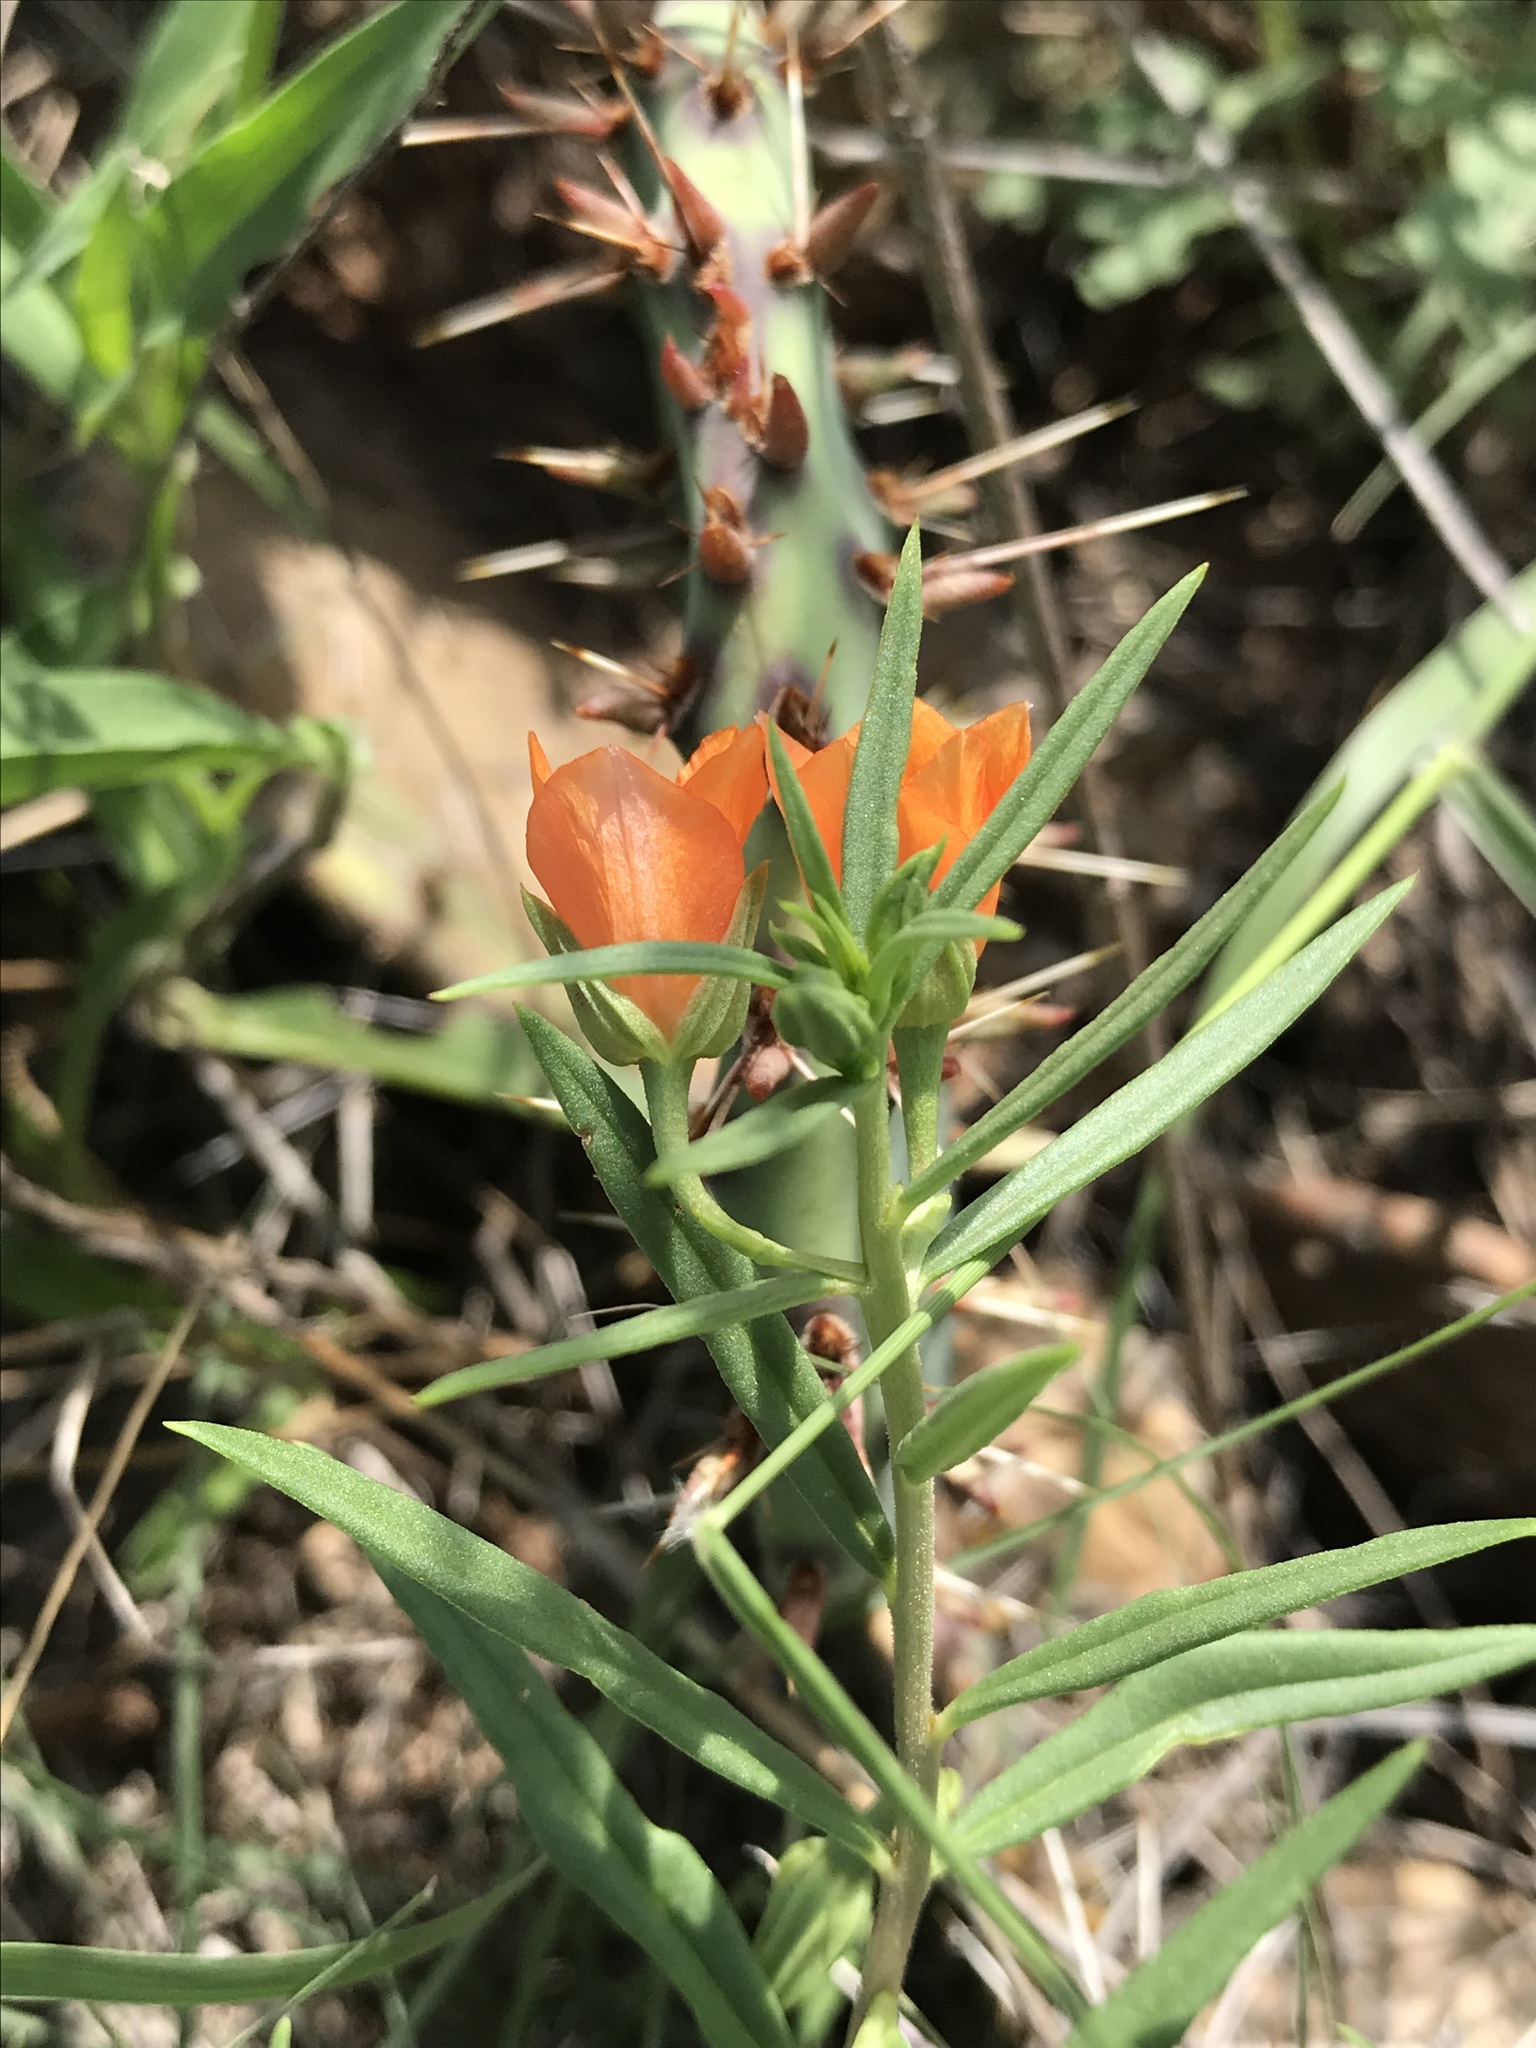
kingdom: Plantae
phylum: Tracheophyta
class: Magnoliopsida
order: Caryophyllales
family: Montiaceae
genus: Phemeranthus
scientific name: Phemeranthus aurantiacus
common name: Orange fameflower
